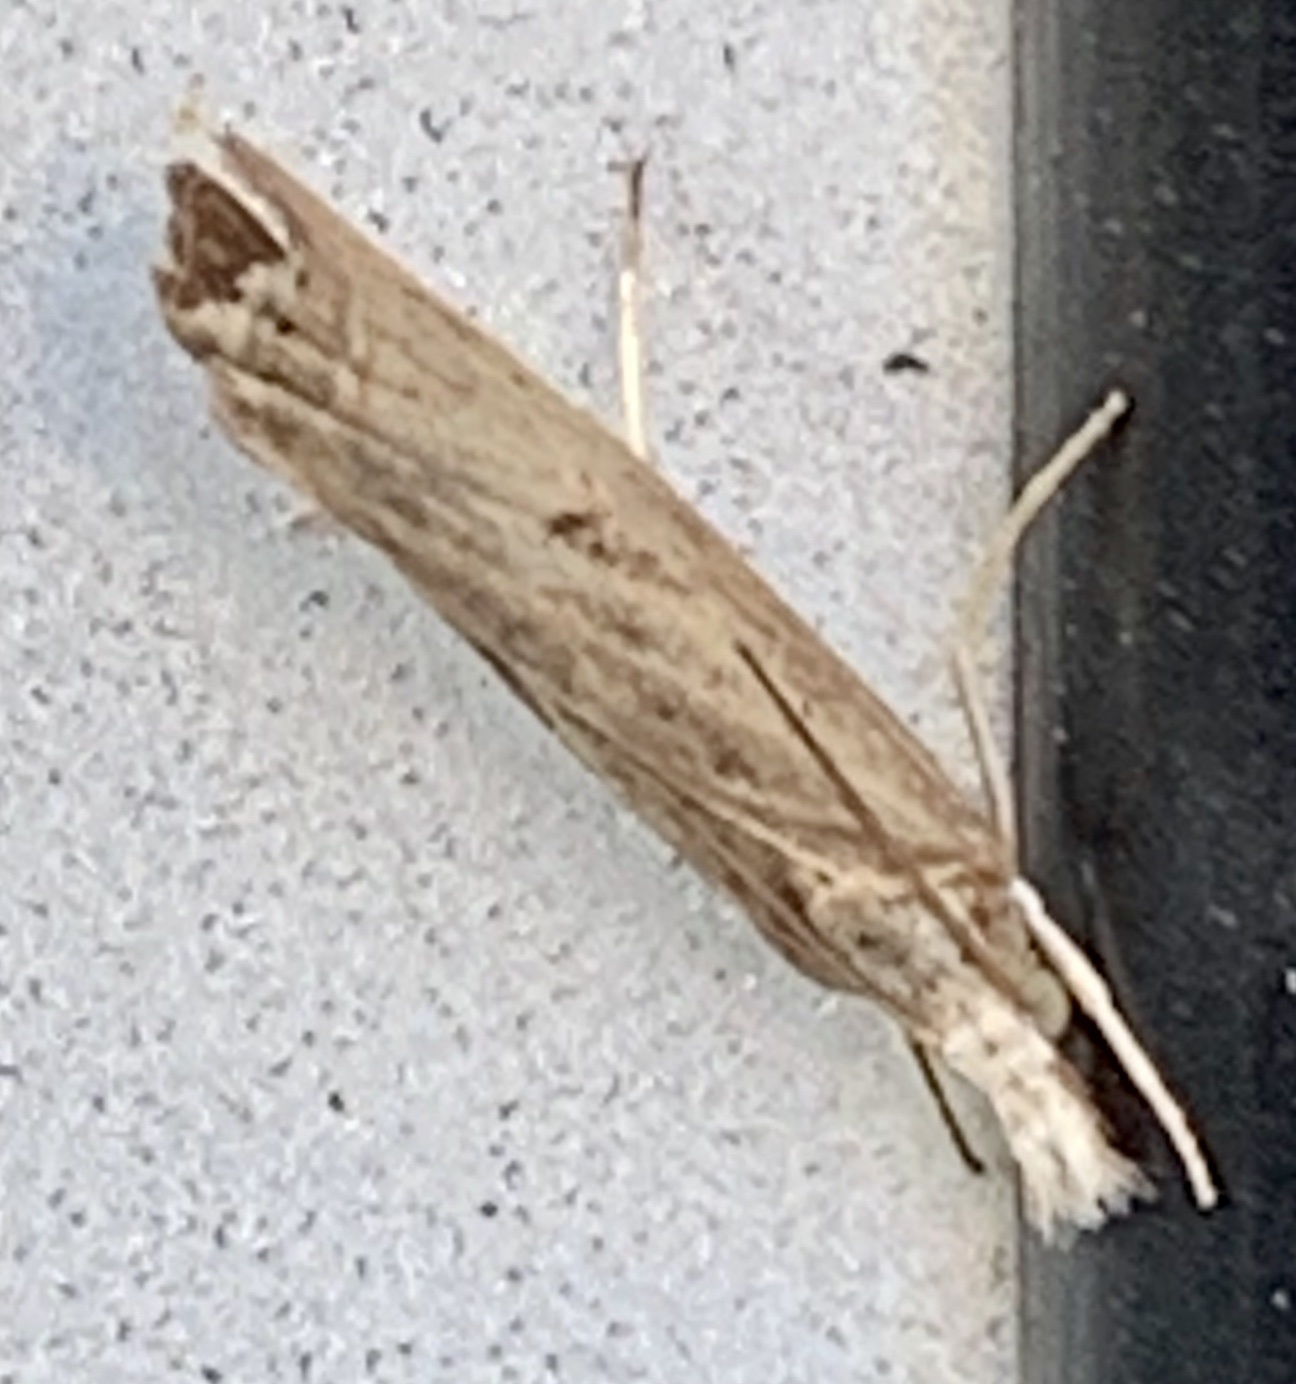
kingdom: Animalia
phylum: Arthropoda
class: Insecta
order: Lepidoptera
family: Crambidae
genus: Parapediasia
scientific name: Parapediasia teterellus
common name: Bluegrass webworm moth
